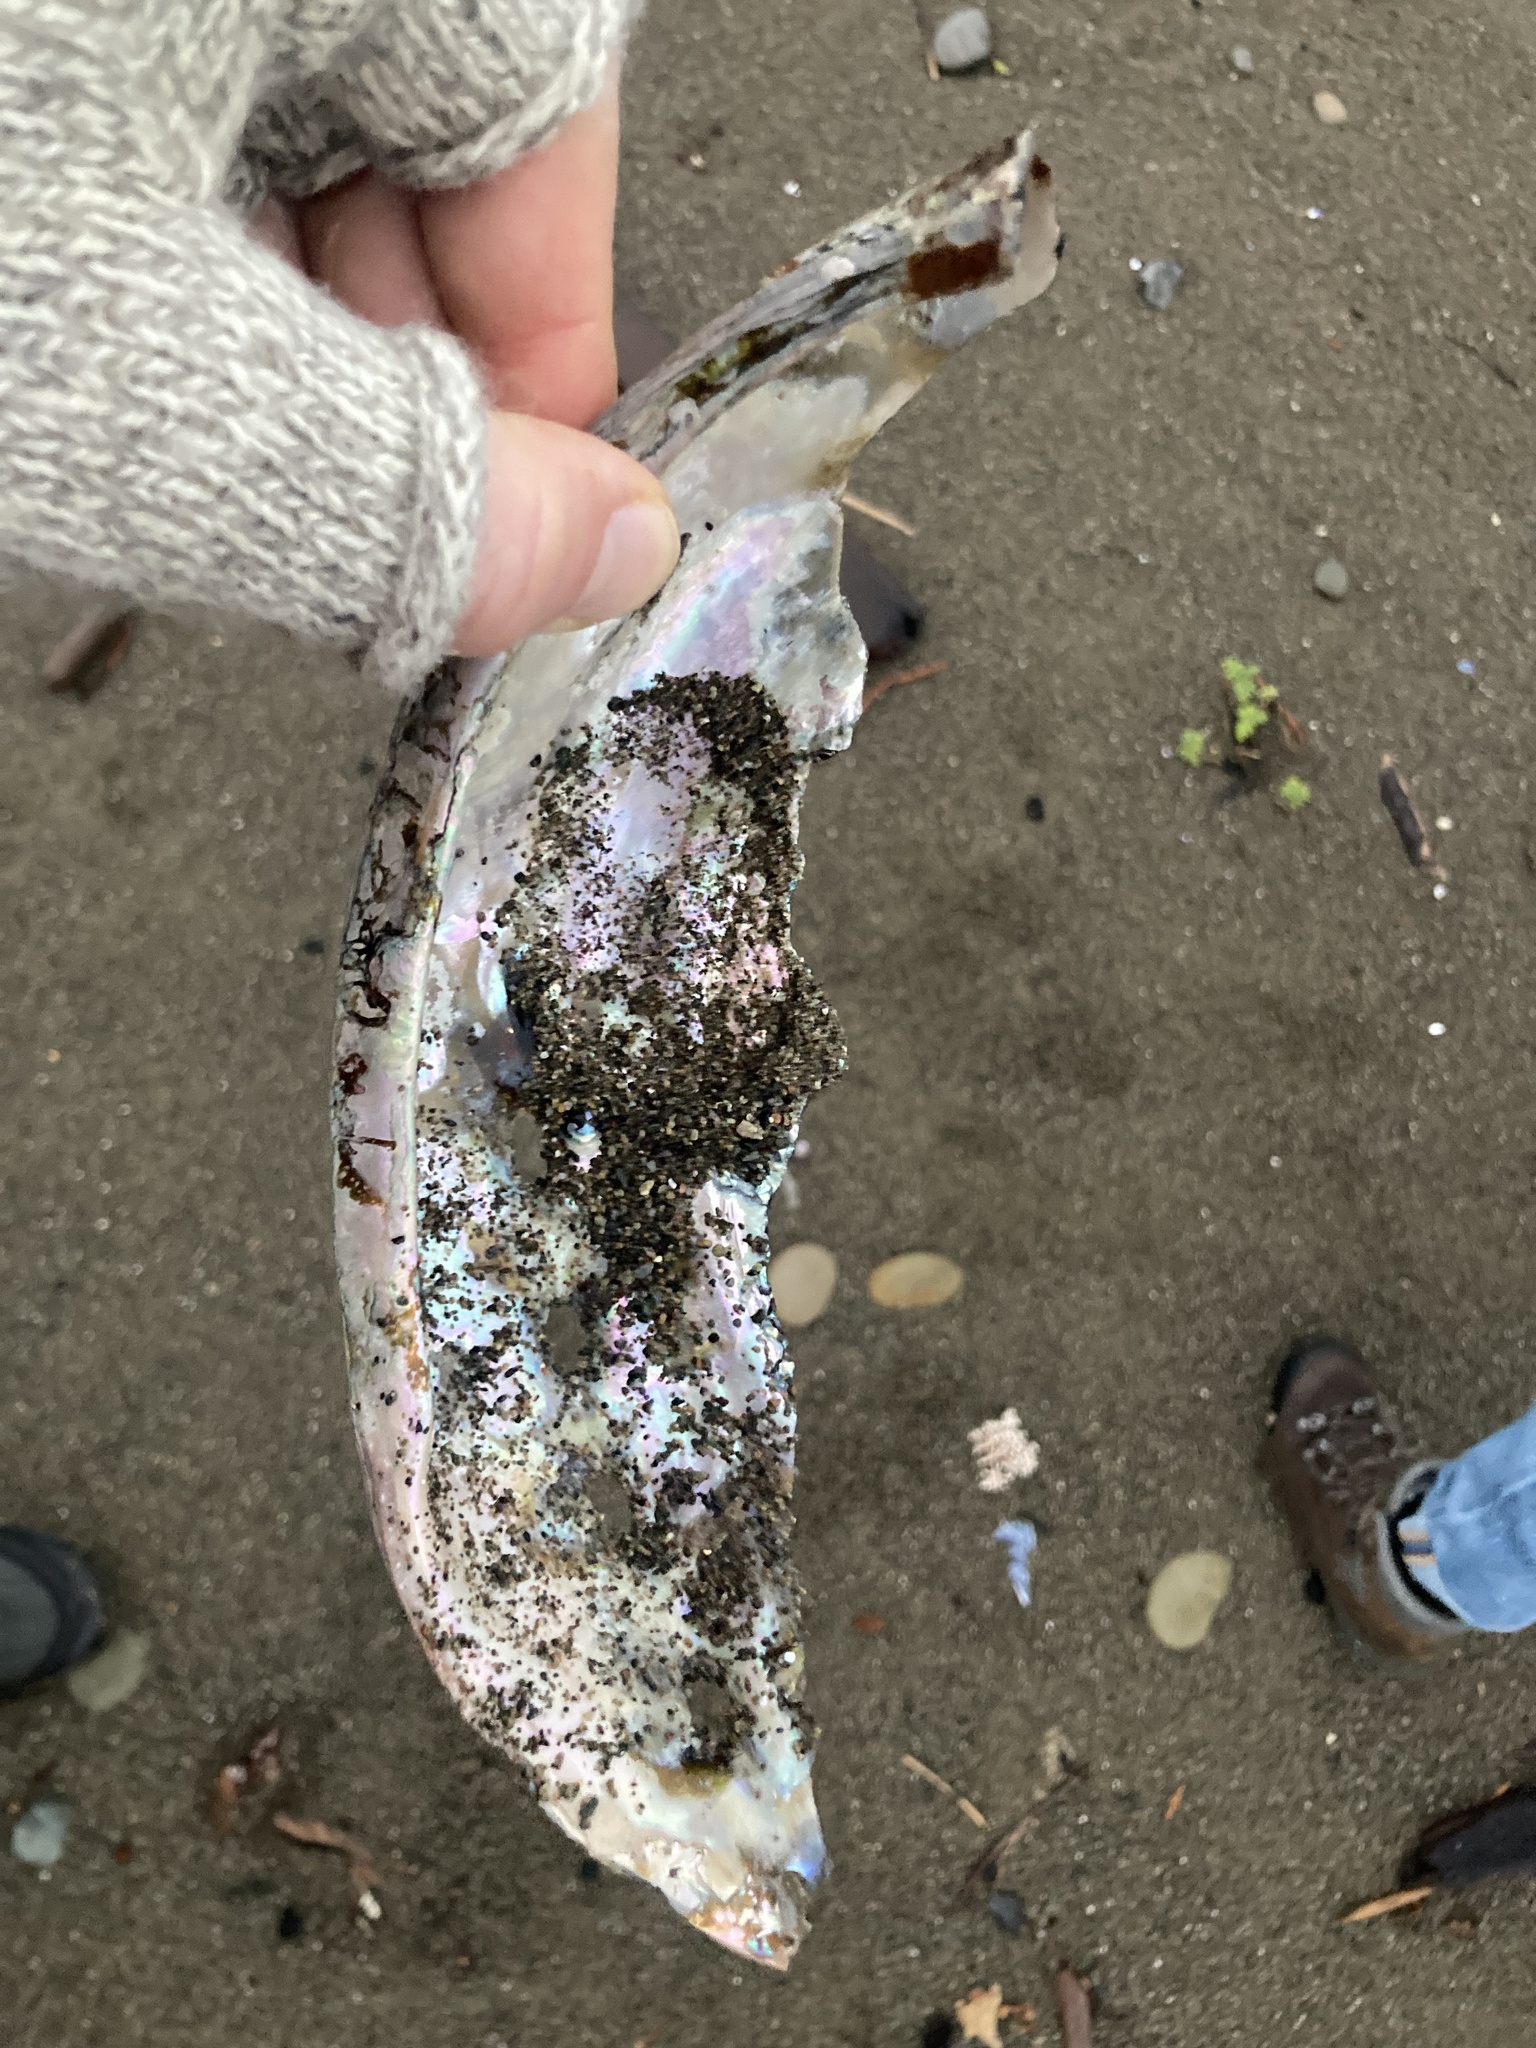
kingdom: Animalia
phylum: Mollusca
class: Gastropoda
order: Lepetellida
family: Haliotidae
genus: Haliotis
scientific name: Haliotis rufescens
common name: Red abalone
